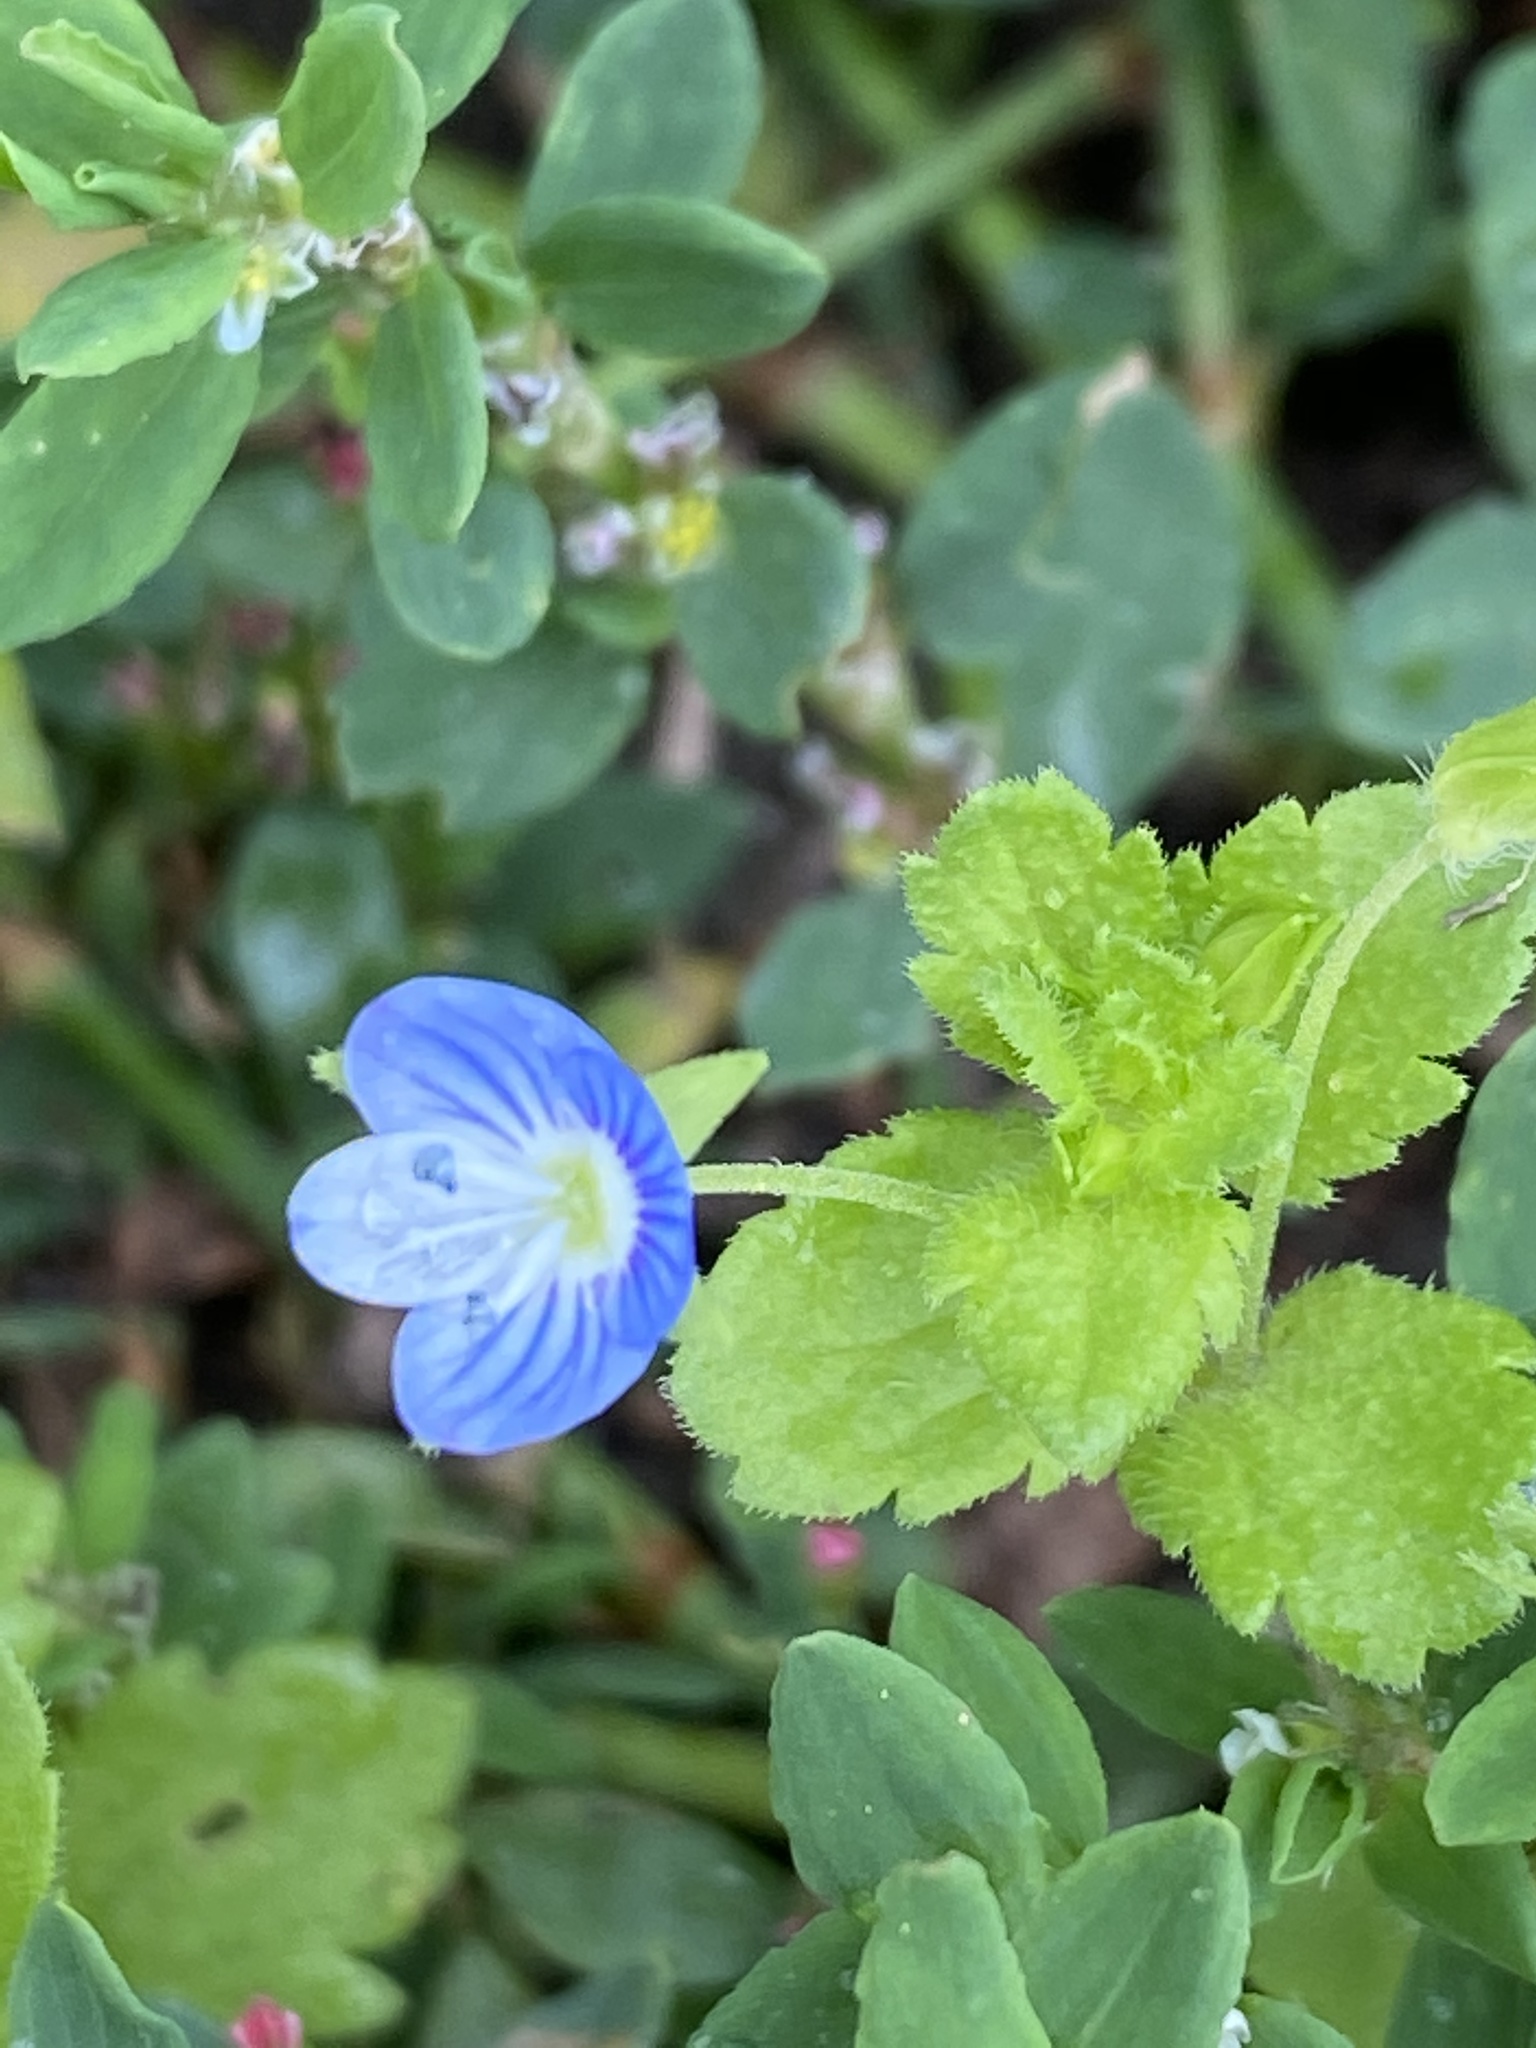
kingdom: Plantae
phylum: Tracheophyta
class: Magnoliopsida
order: Lamiales
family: Plantaginaceae
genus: Veronica
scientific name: Veronica persica
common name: Common field-speedwell
